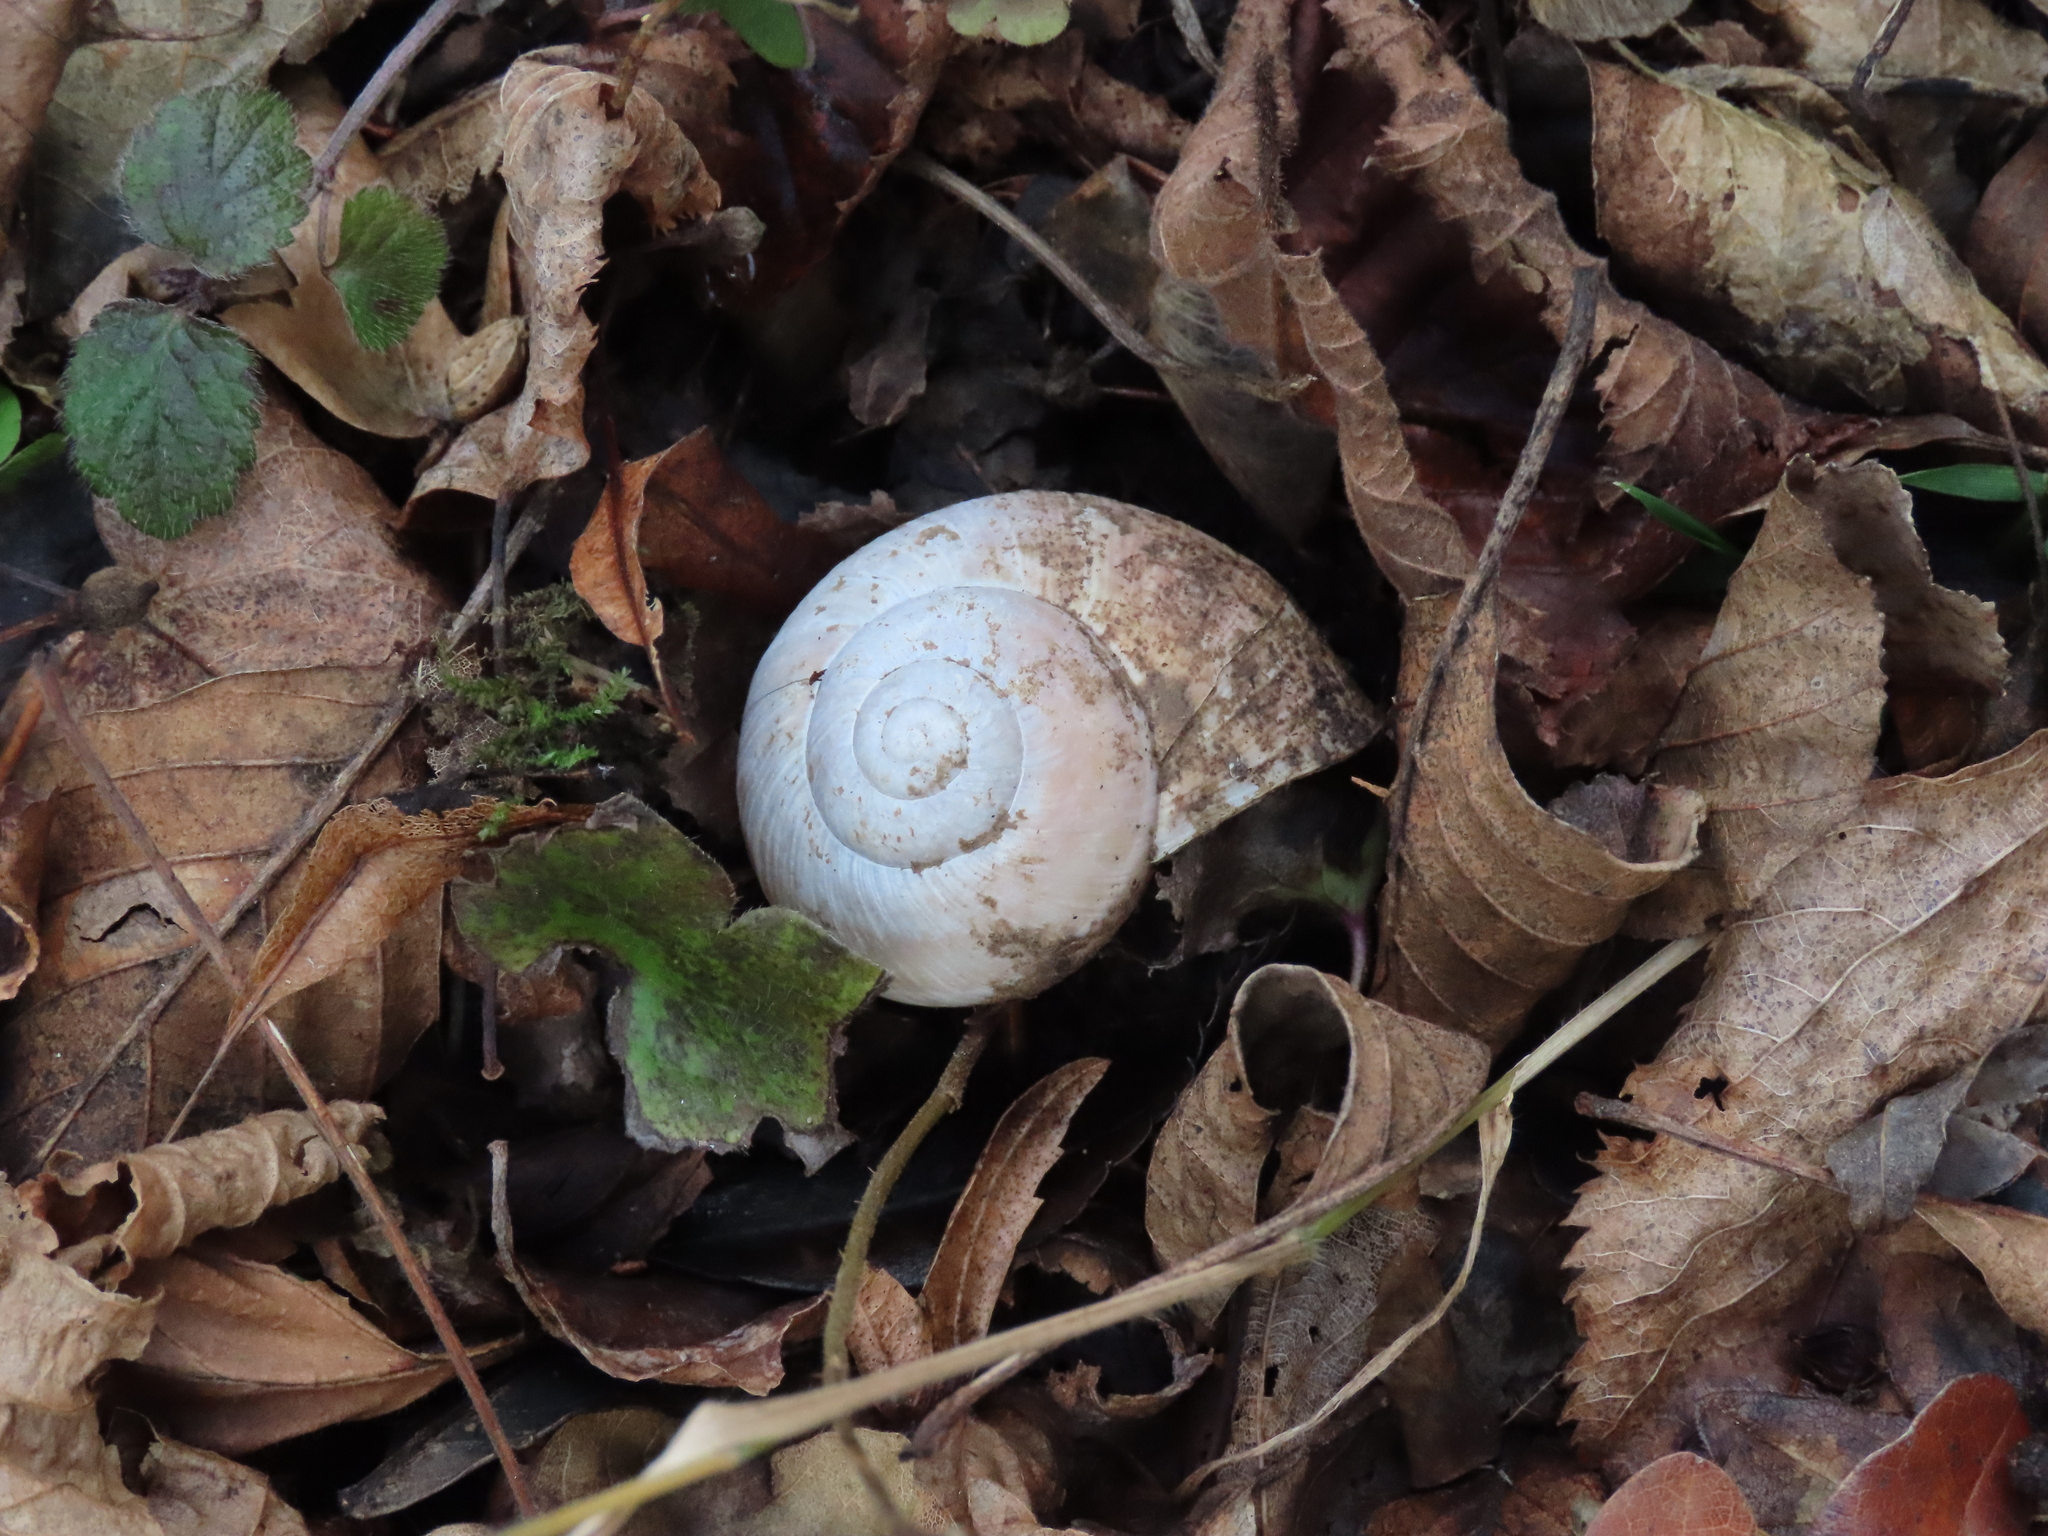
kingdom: Animalia
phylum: Mollusca
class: Gastropoda
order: Stylommatophora
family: Helicidae
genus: Helix
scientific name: Helix pomatia
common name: Roman snail
